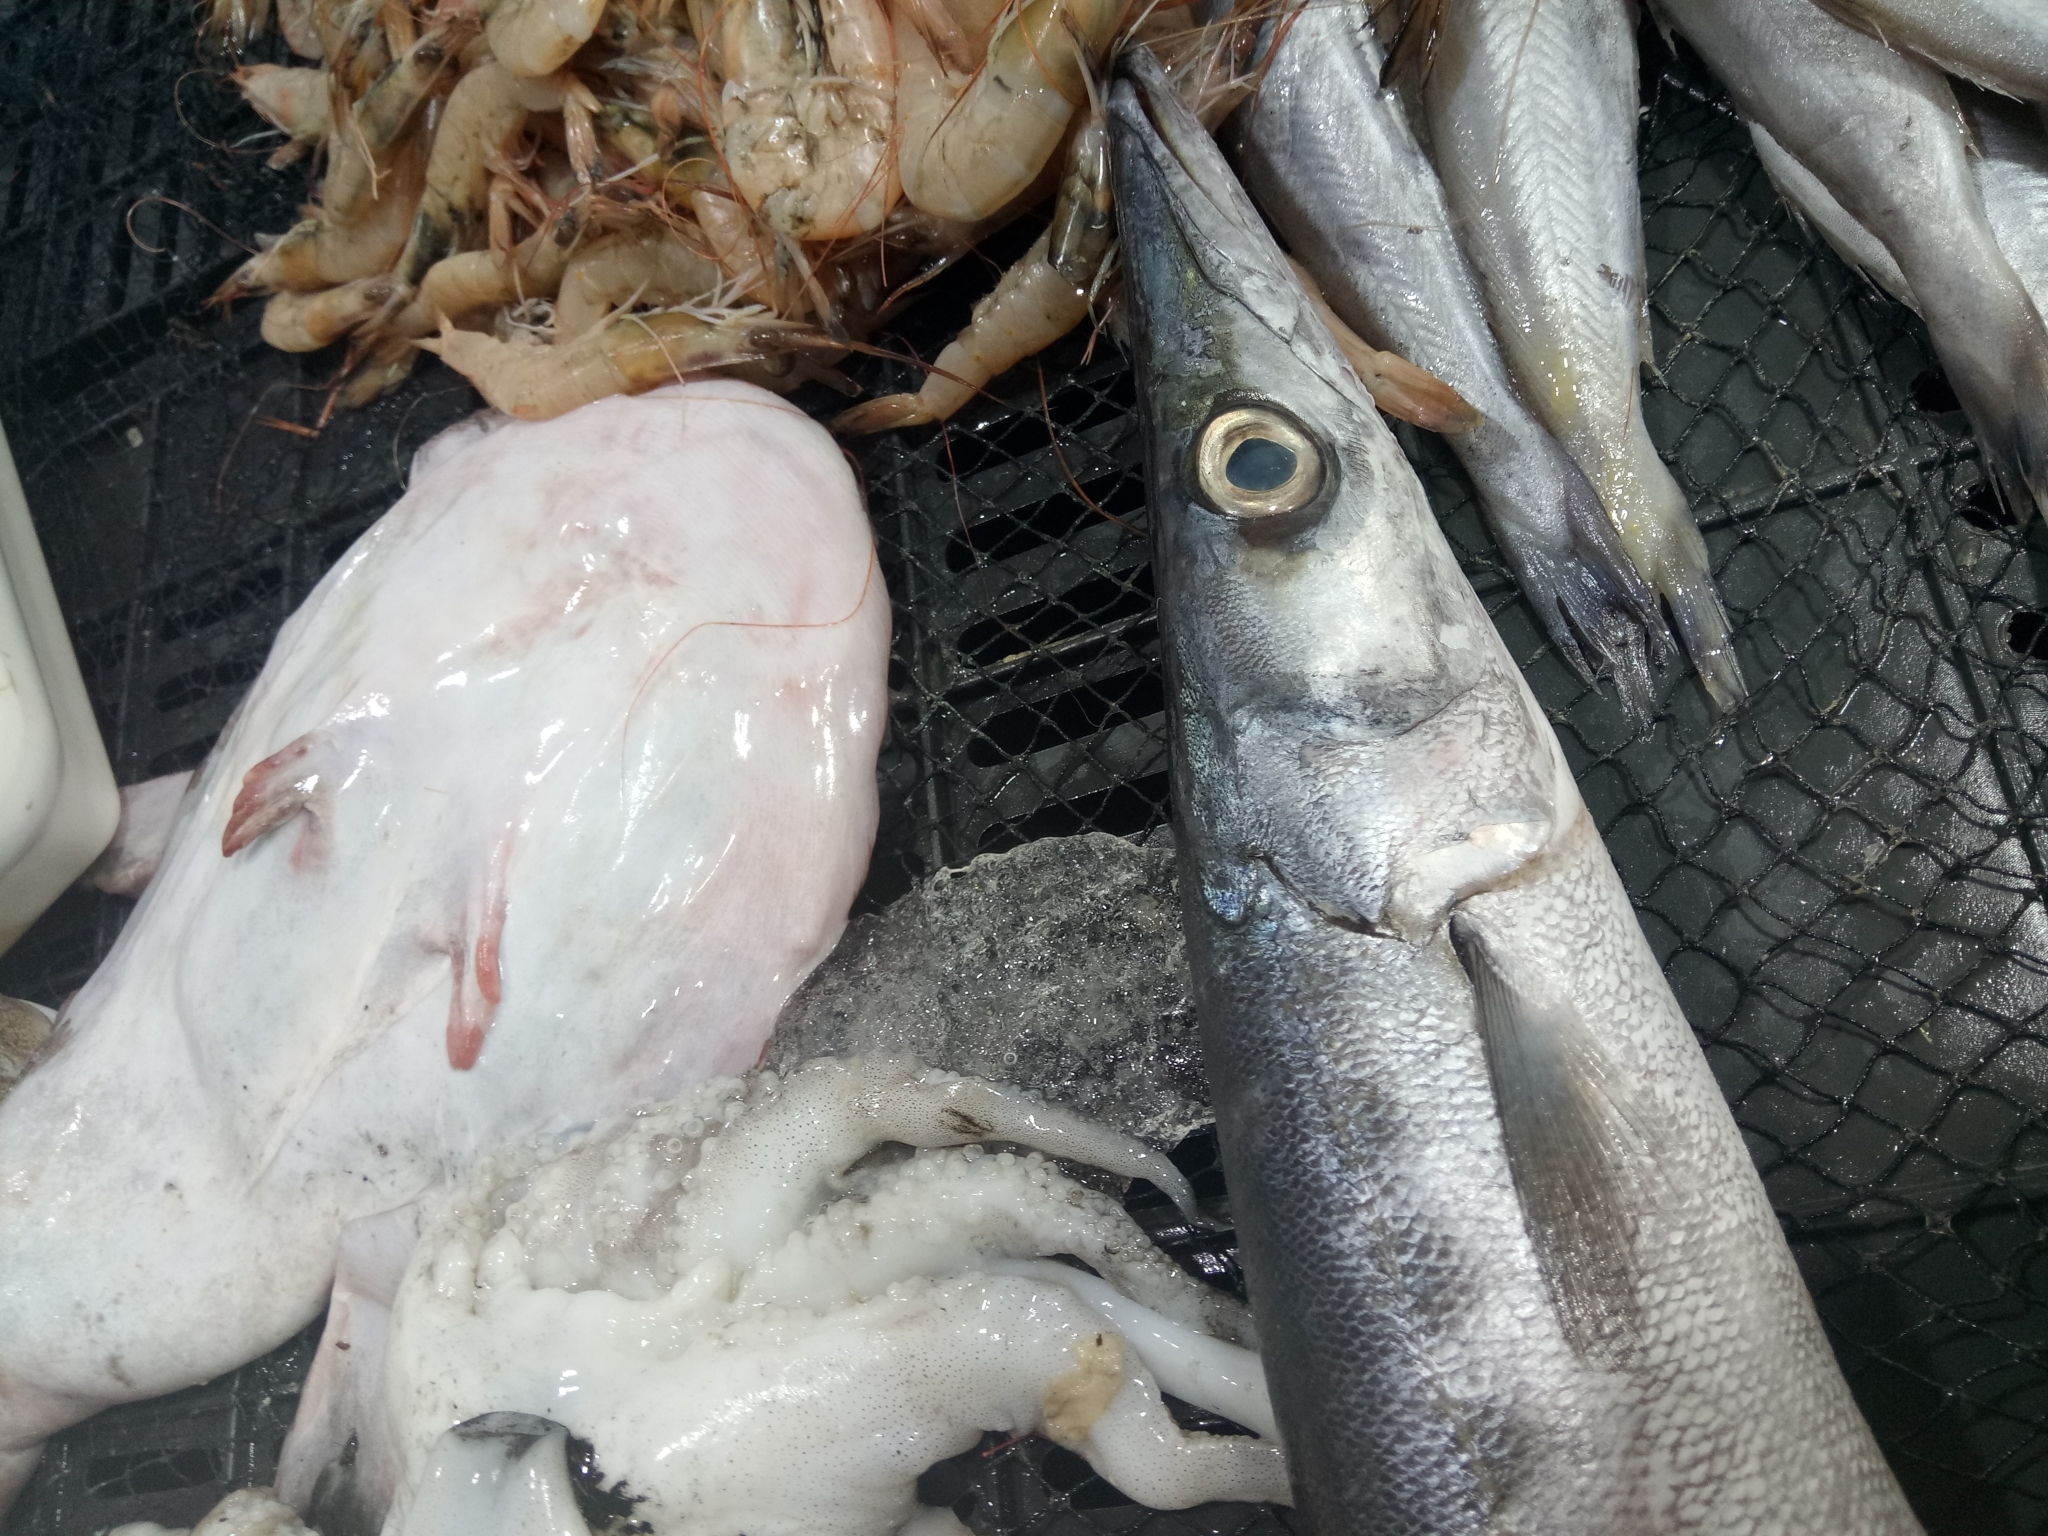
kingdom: Animalia
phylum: Chordata
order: Perciformes
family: Sphyraenidae
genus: Sphyraena
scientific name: Sphyraena viridensis
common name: Yellowmouth barracuda
